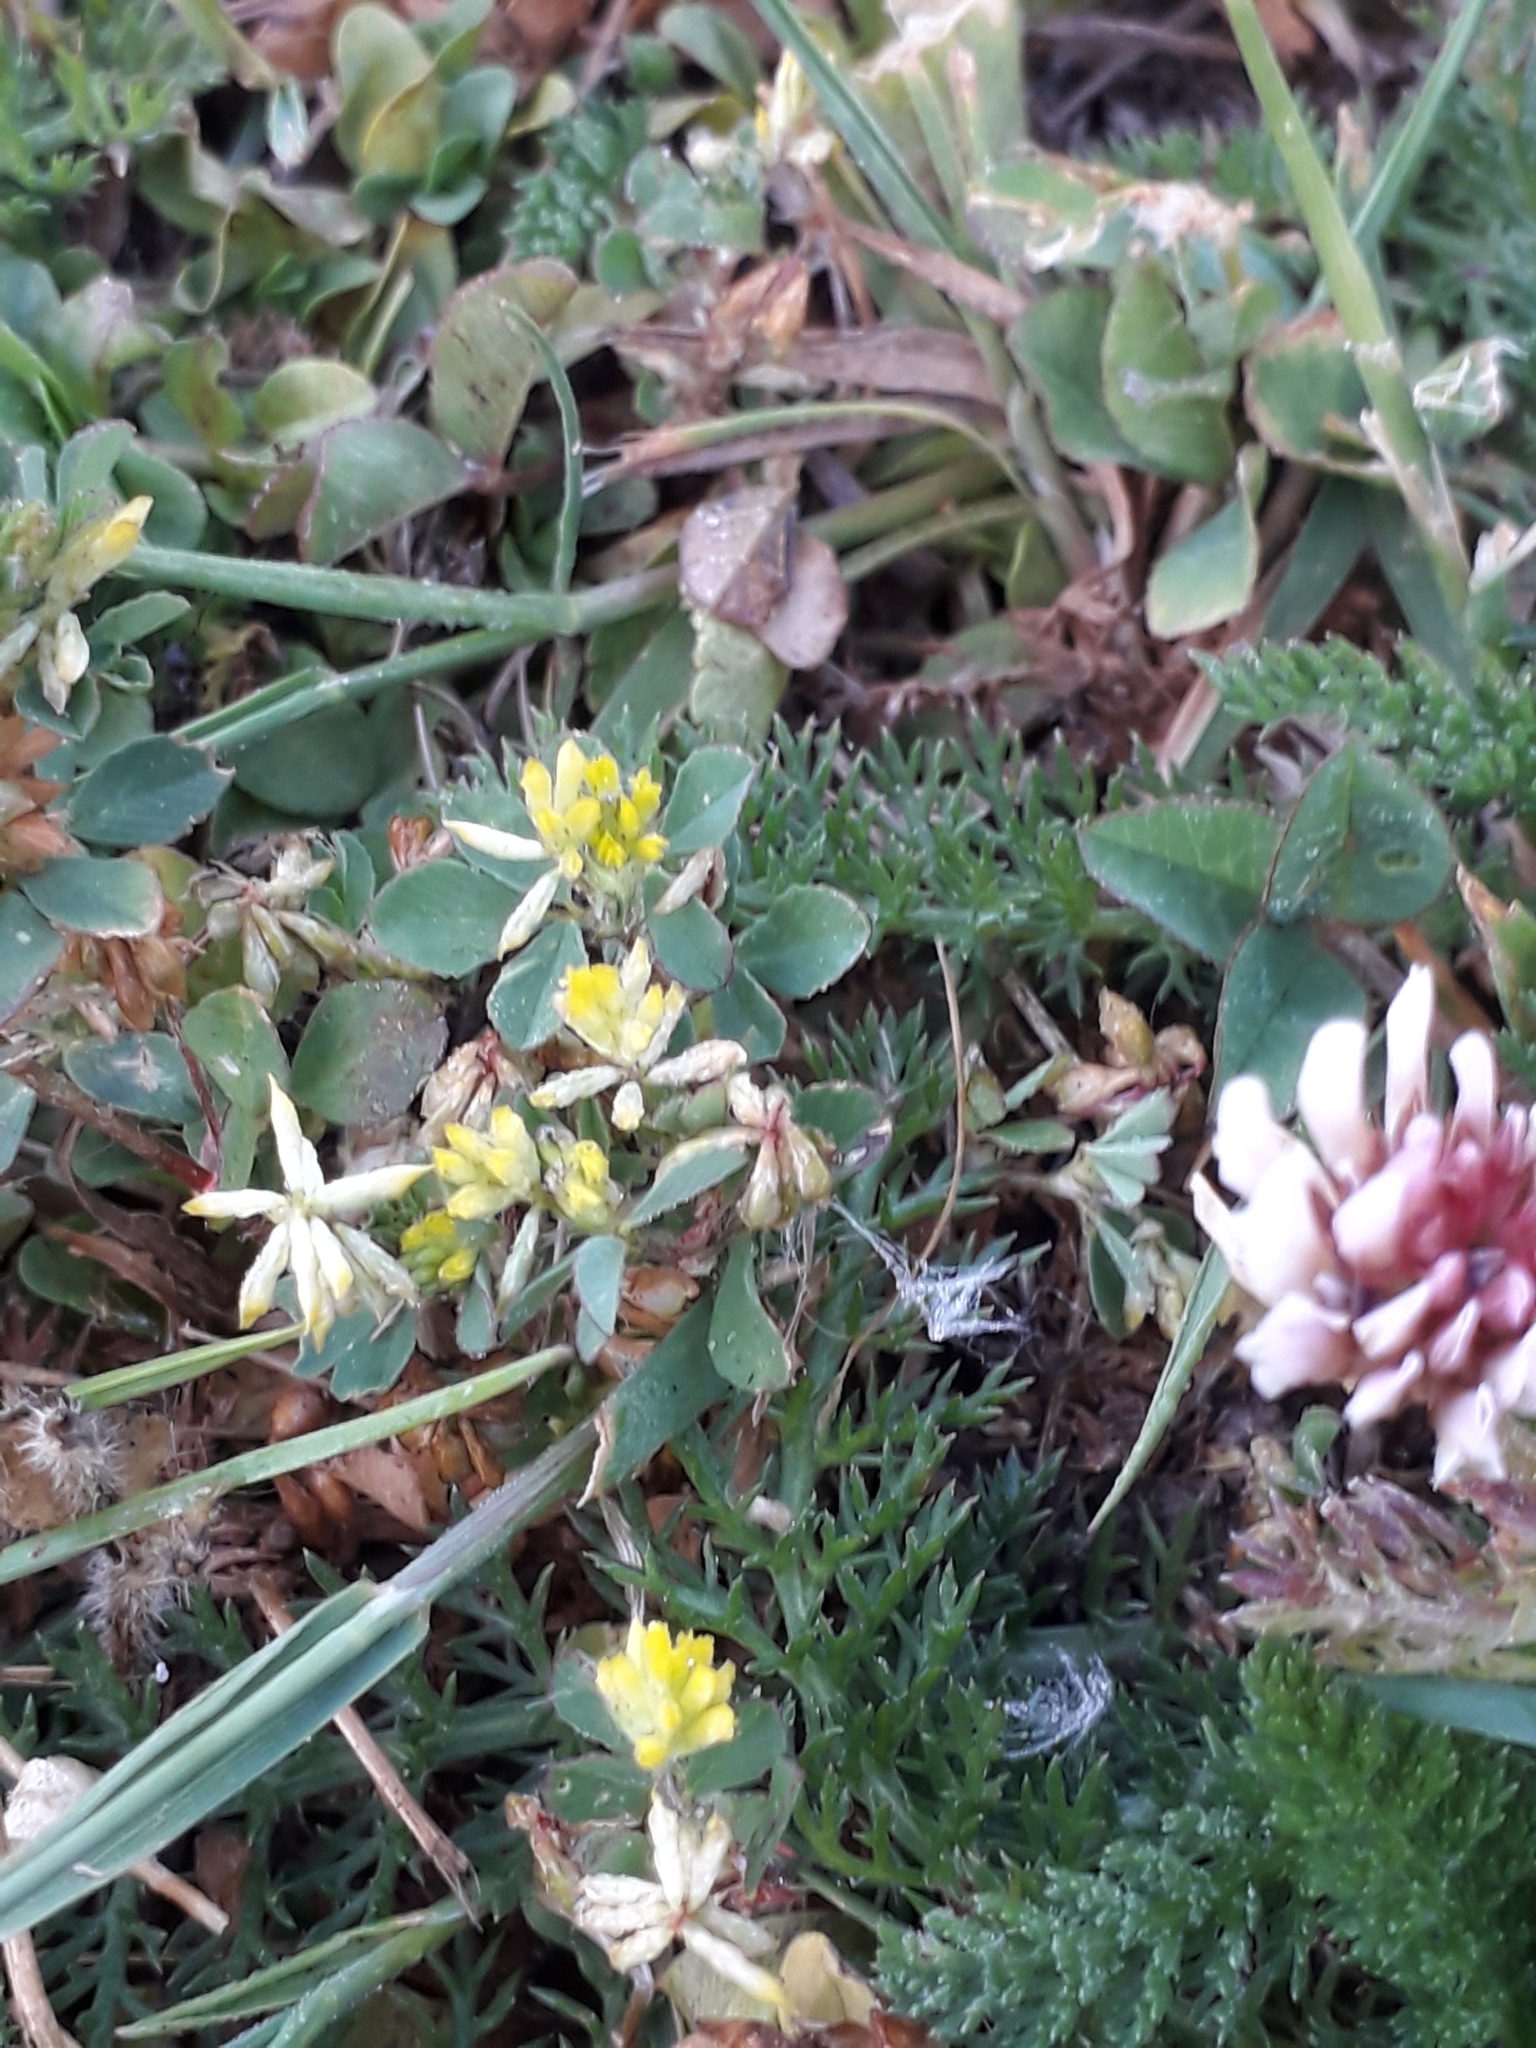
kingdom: Plantae
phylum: Tracheophyta
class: Magnoliopsida
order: Fabales
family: Fabaceae
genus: Trifolium
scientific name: Trifolium dubium
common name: Suckling clover
